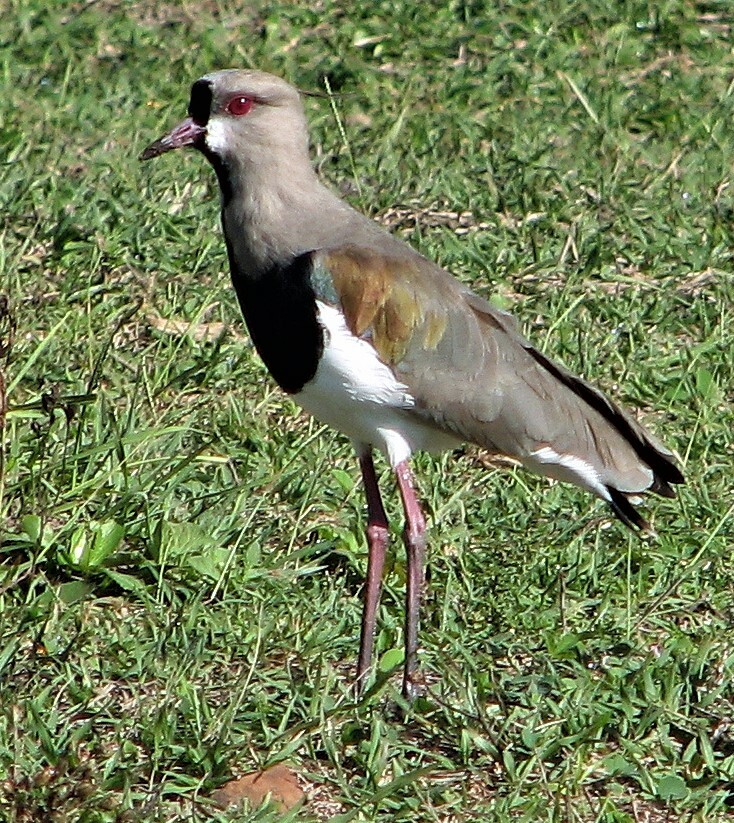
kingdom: Animalia
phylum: Chordata
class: Aves
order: Charadriiformes
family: Charadriidae
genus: Vanellus
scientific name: Vanellus chilensis
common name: Southern lapwing
